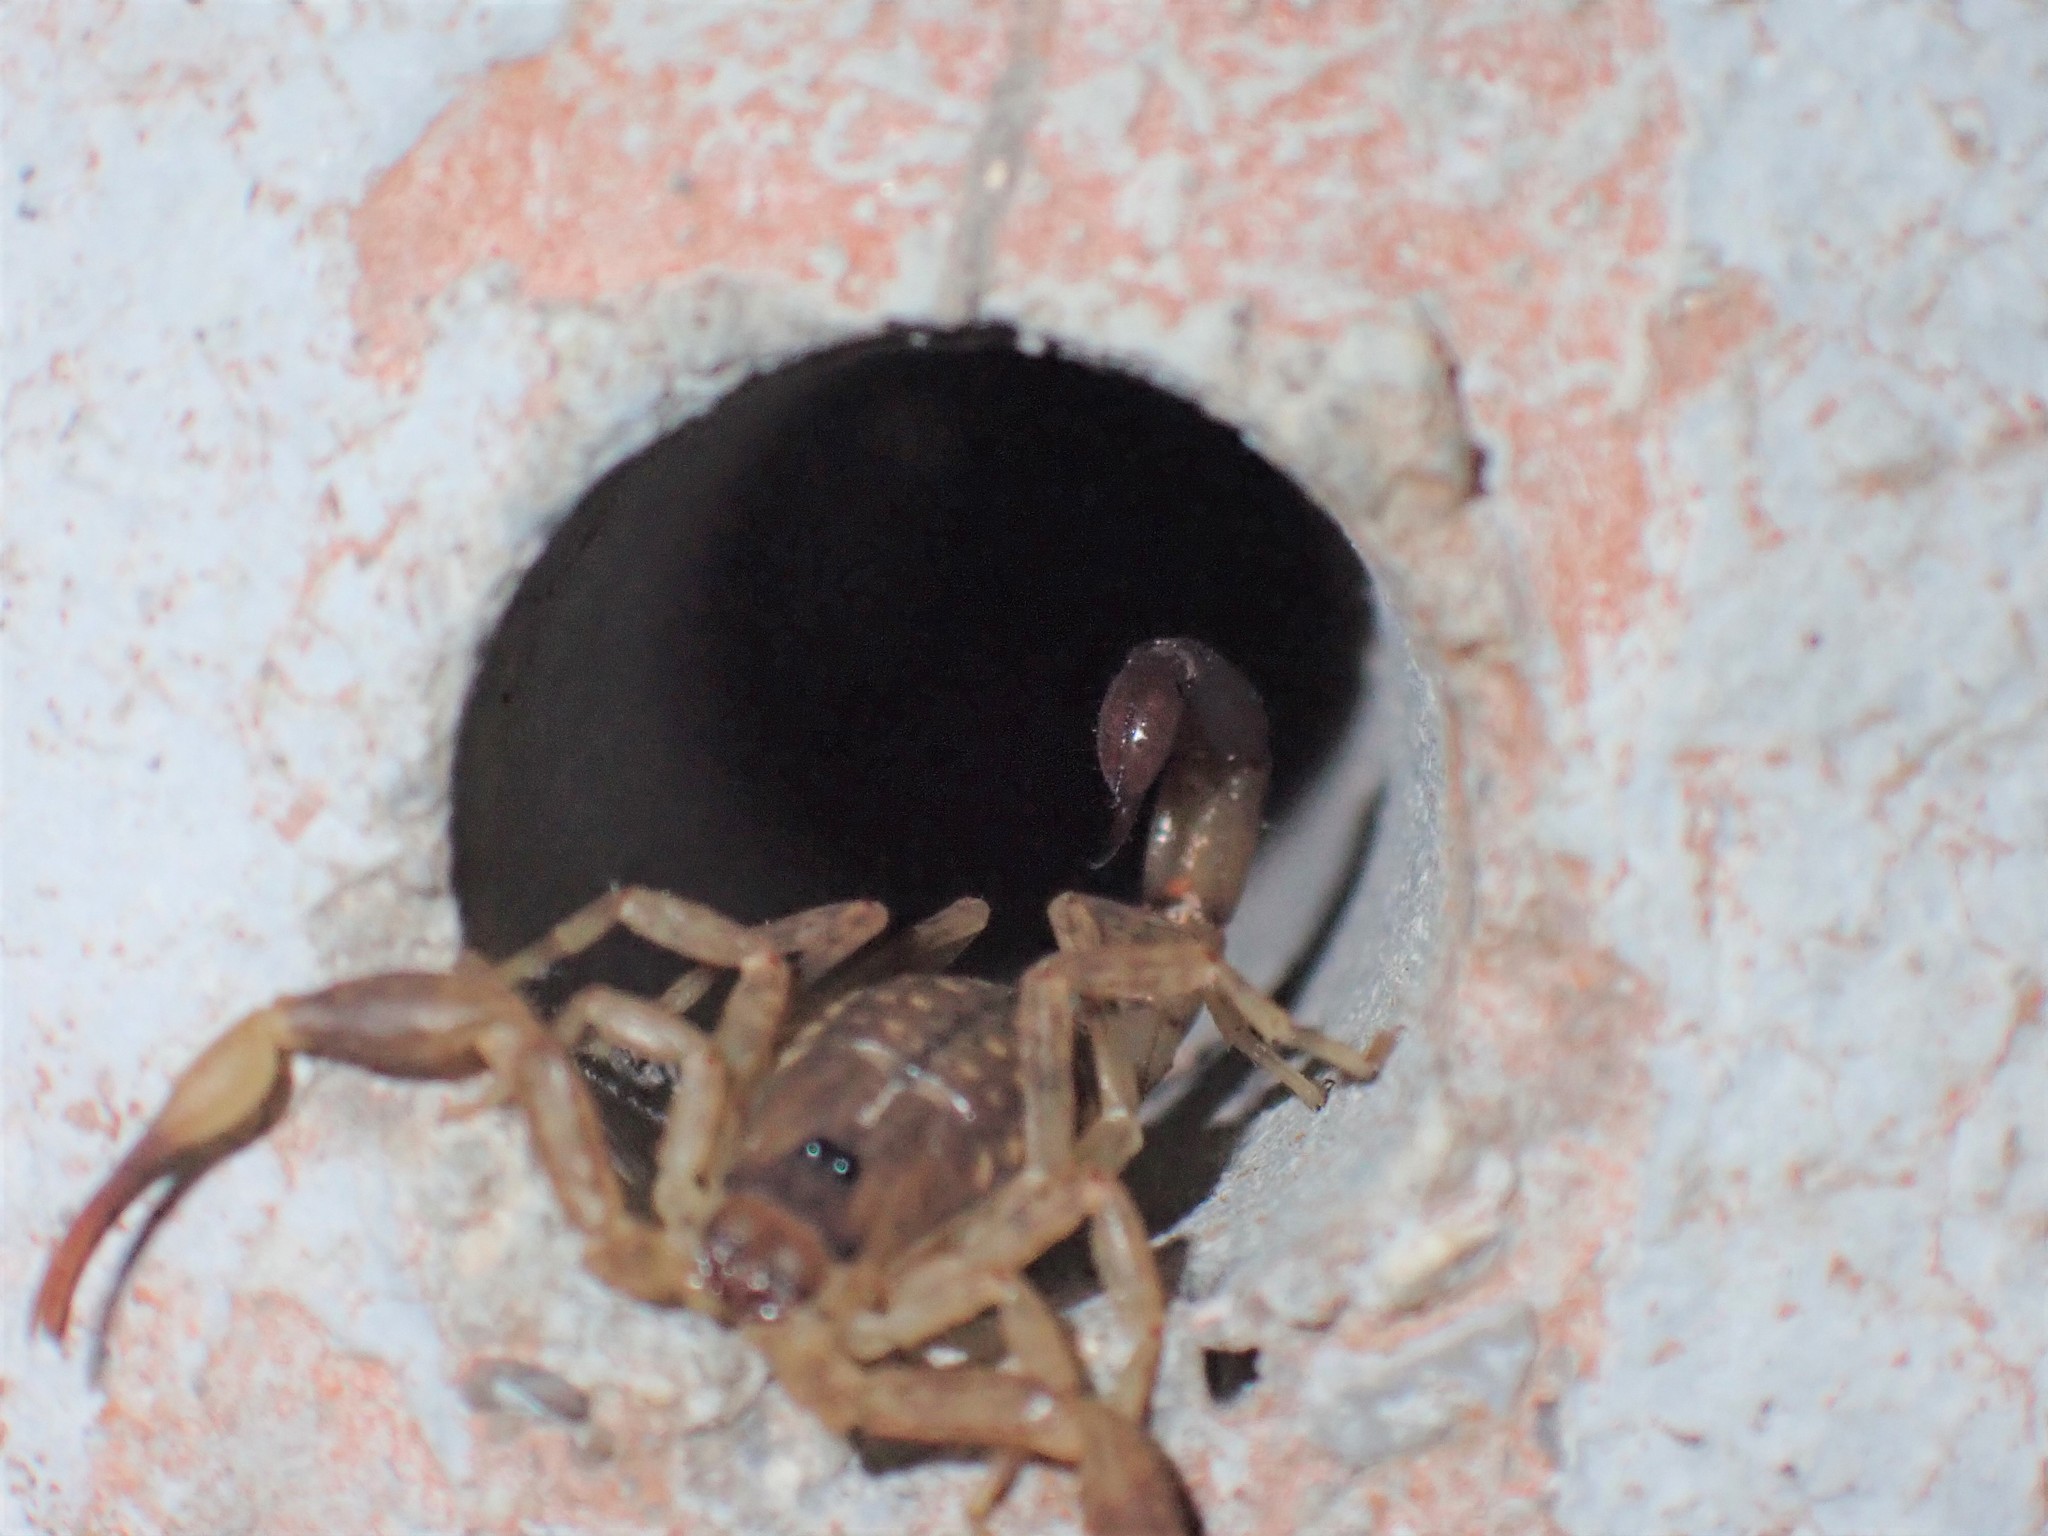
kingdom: Animalia
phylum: Arthropoda
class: Arachnida
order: Scorpiones
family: Buthidae
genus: Lychas
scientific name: Lychas mucronatus
